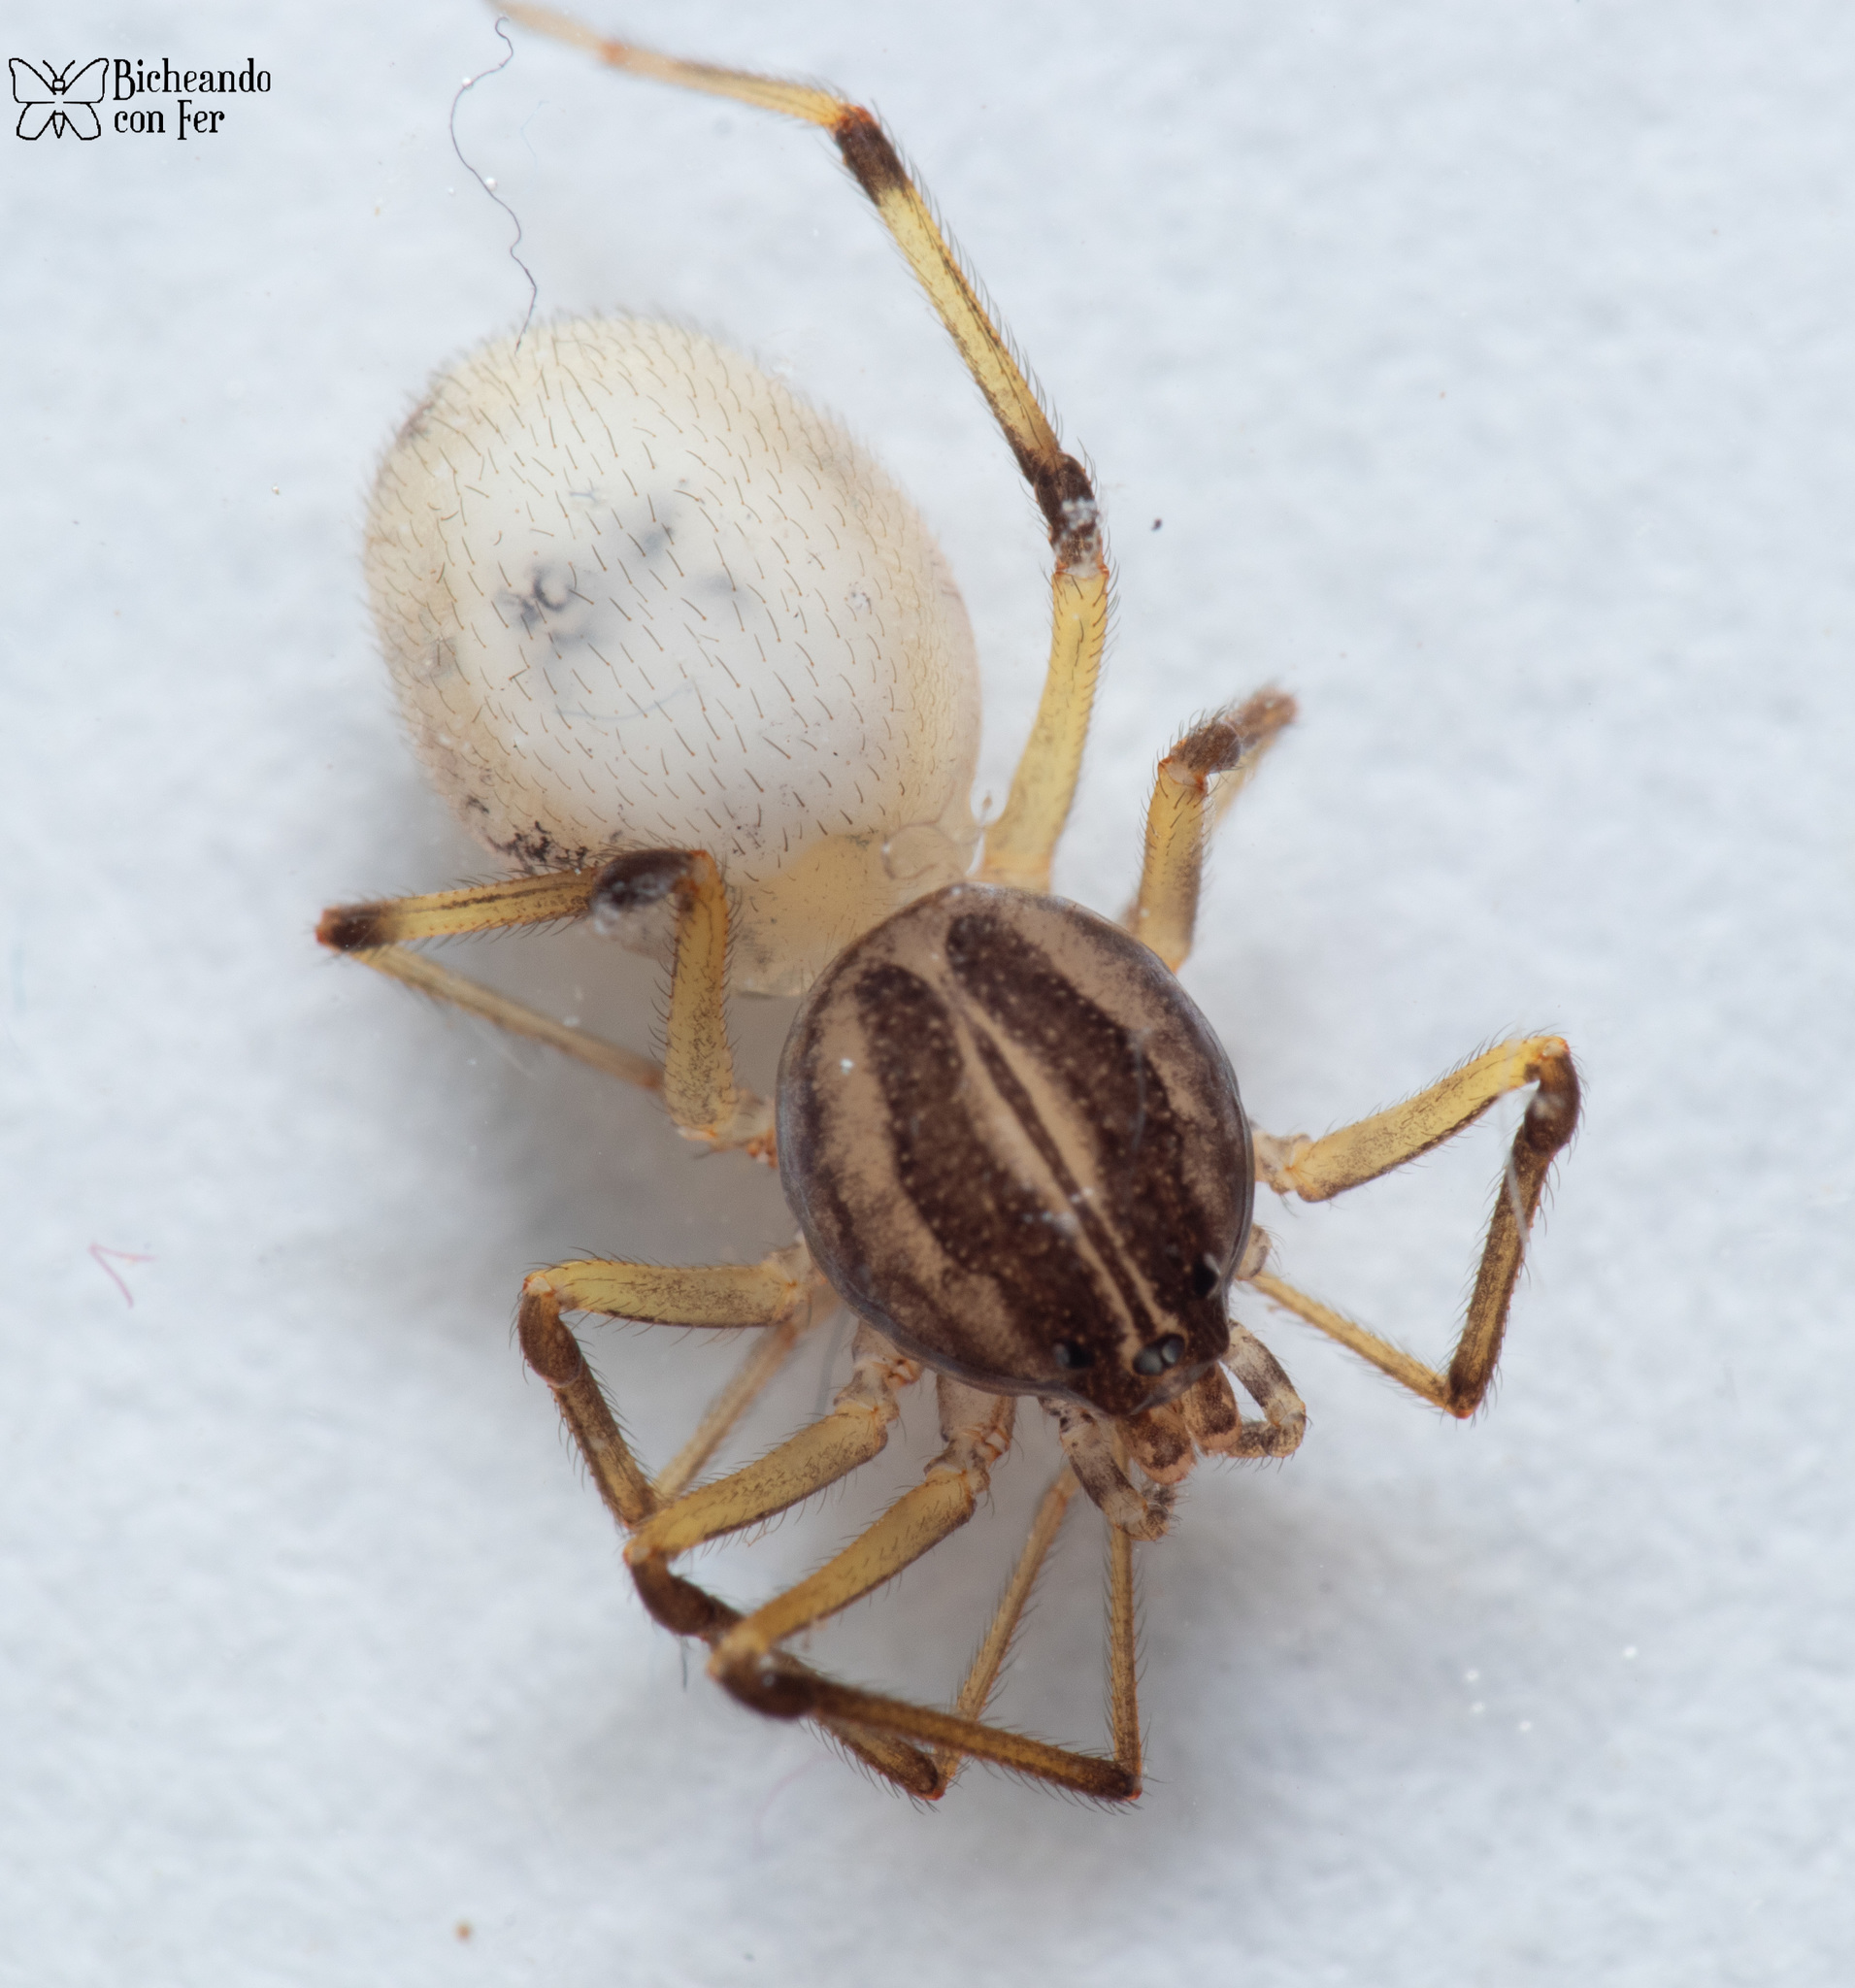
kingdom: Animalia
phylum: Arthropoda
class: Arachnida
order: Araneae
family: Scytodidae
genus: Dictis
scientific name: Dictis striatipes
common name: Spider
